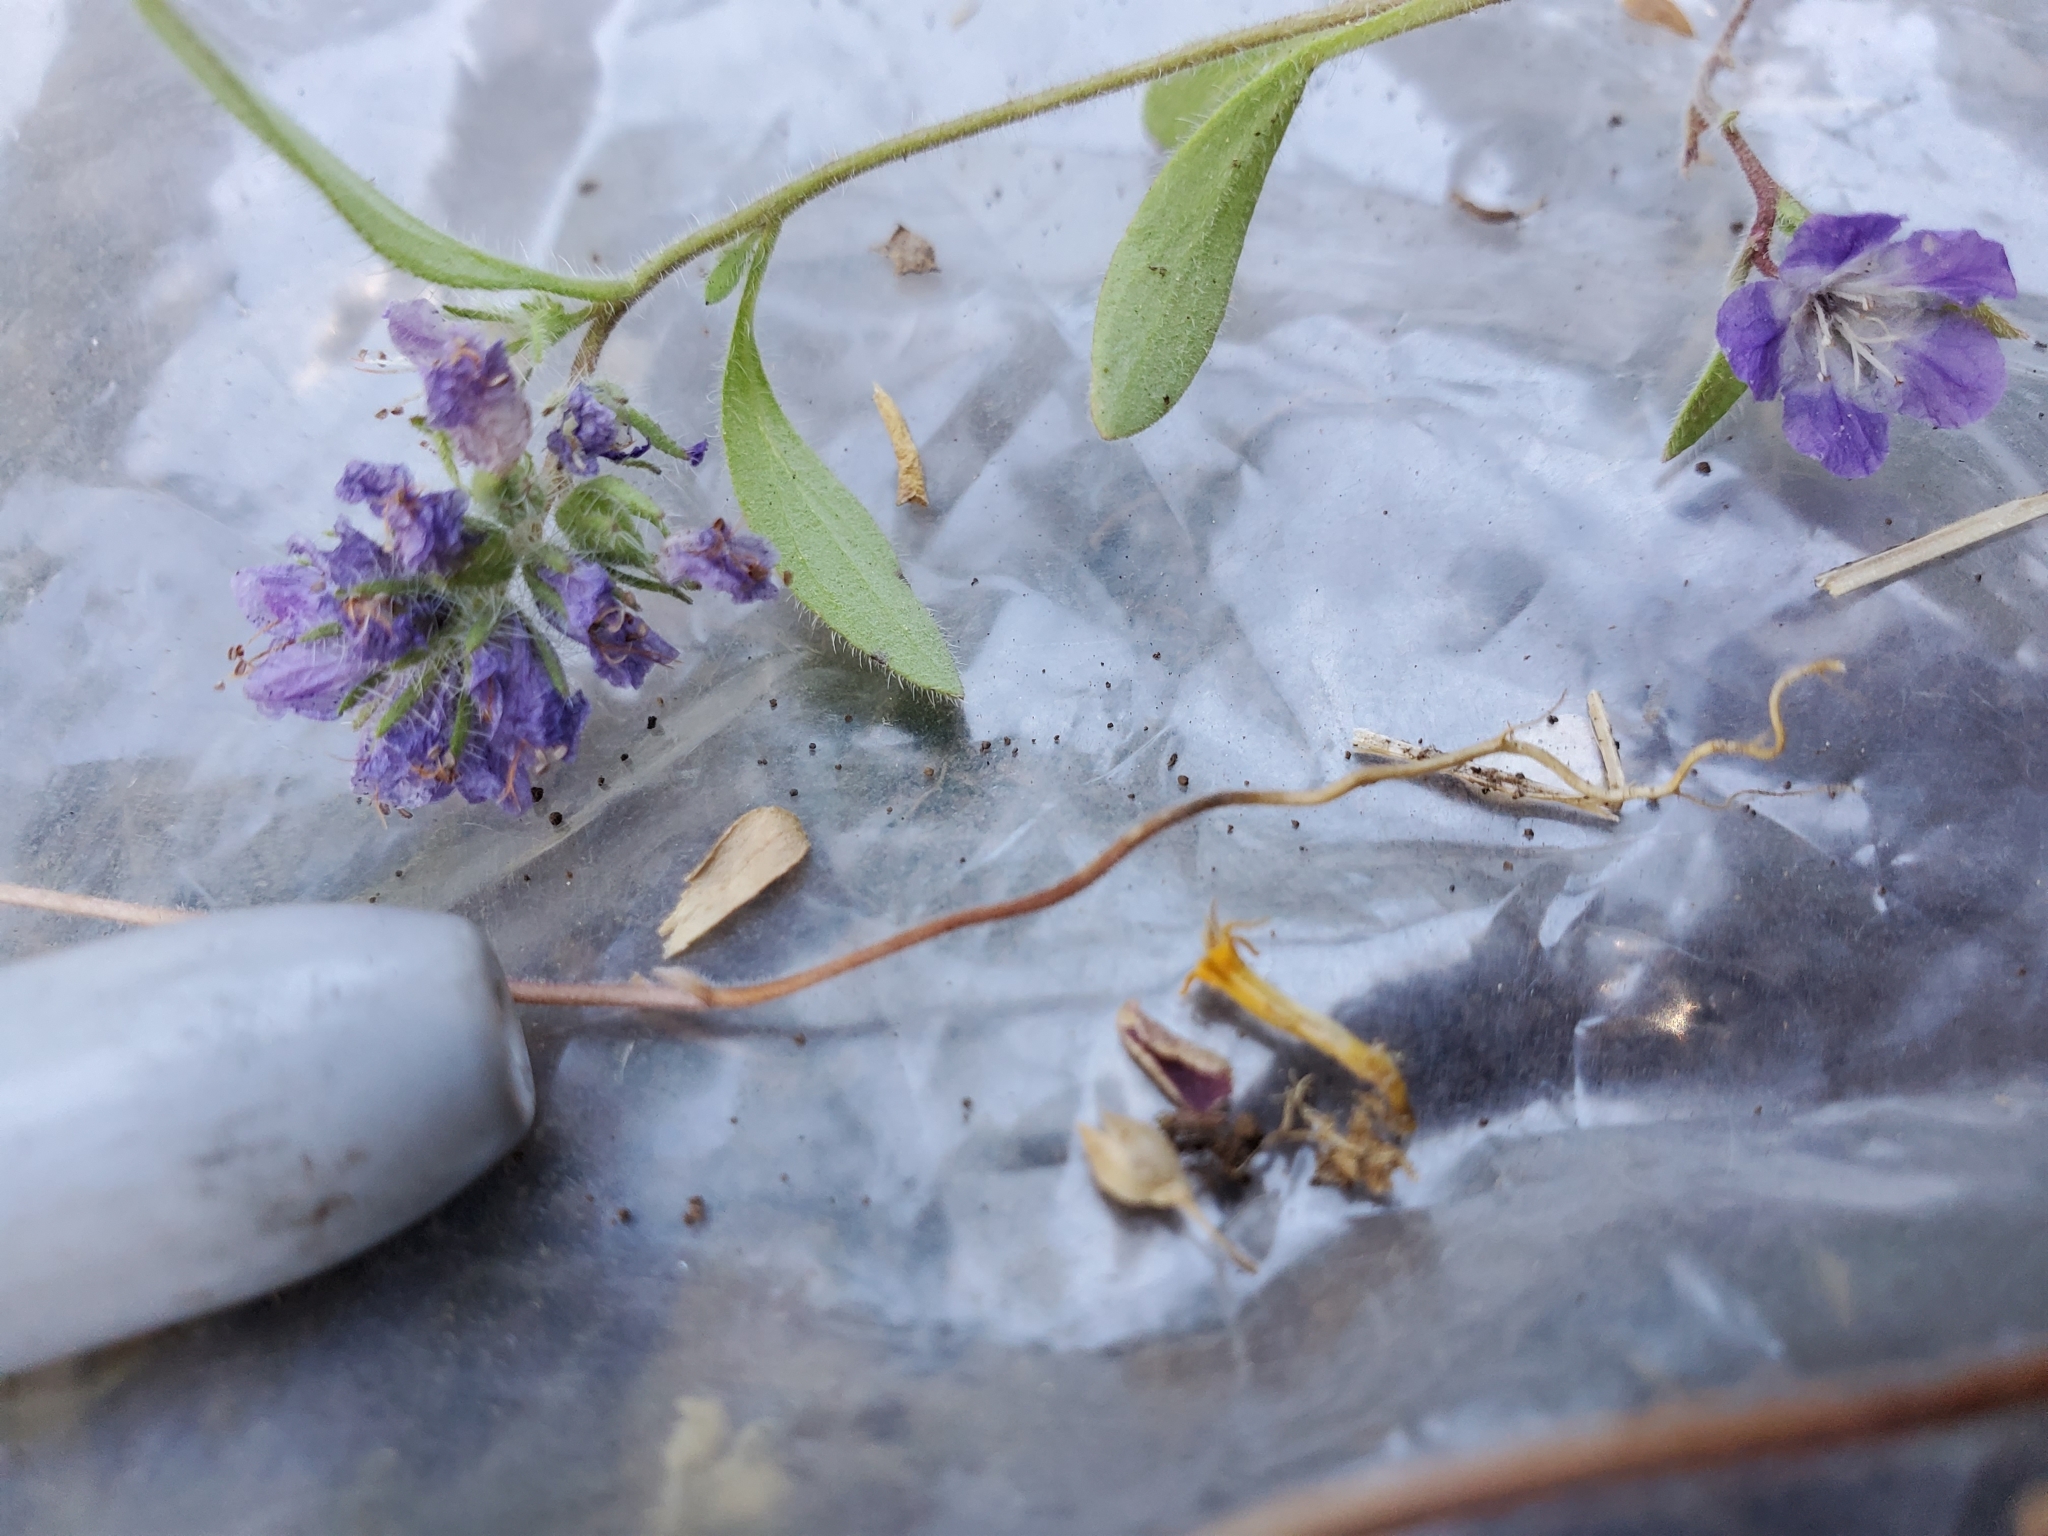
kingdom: Plantae
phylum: Tracheophyta
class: Magnoliopsida
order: Boraginales
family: Hydrophyllaceae
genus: Phacelia
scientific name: Phacelia humilis
